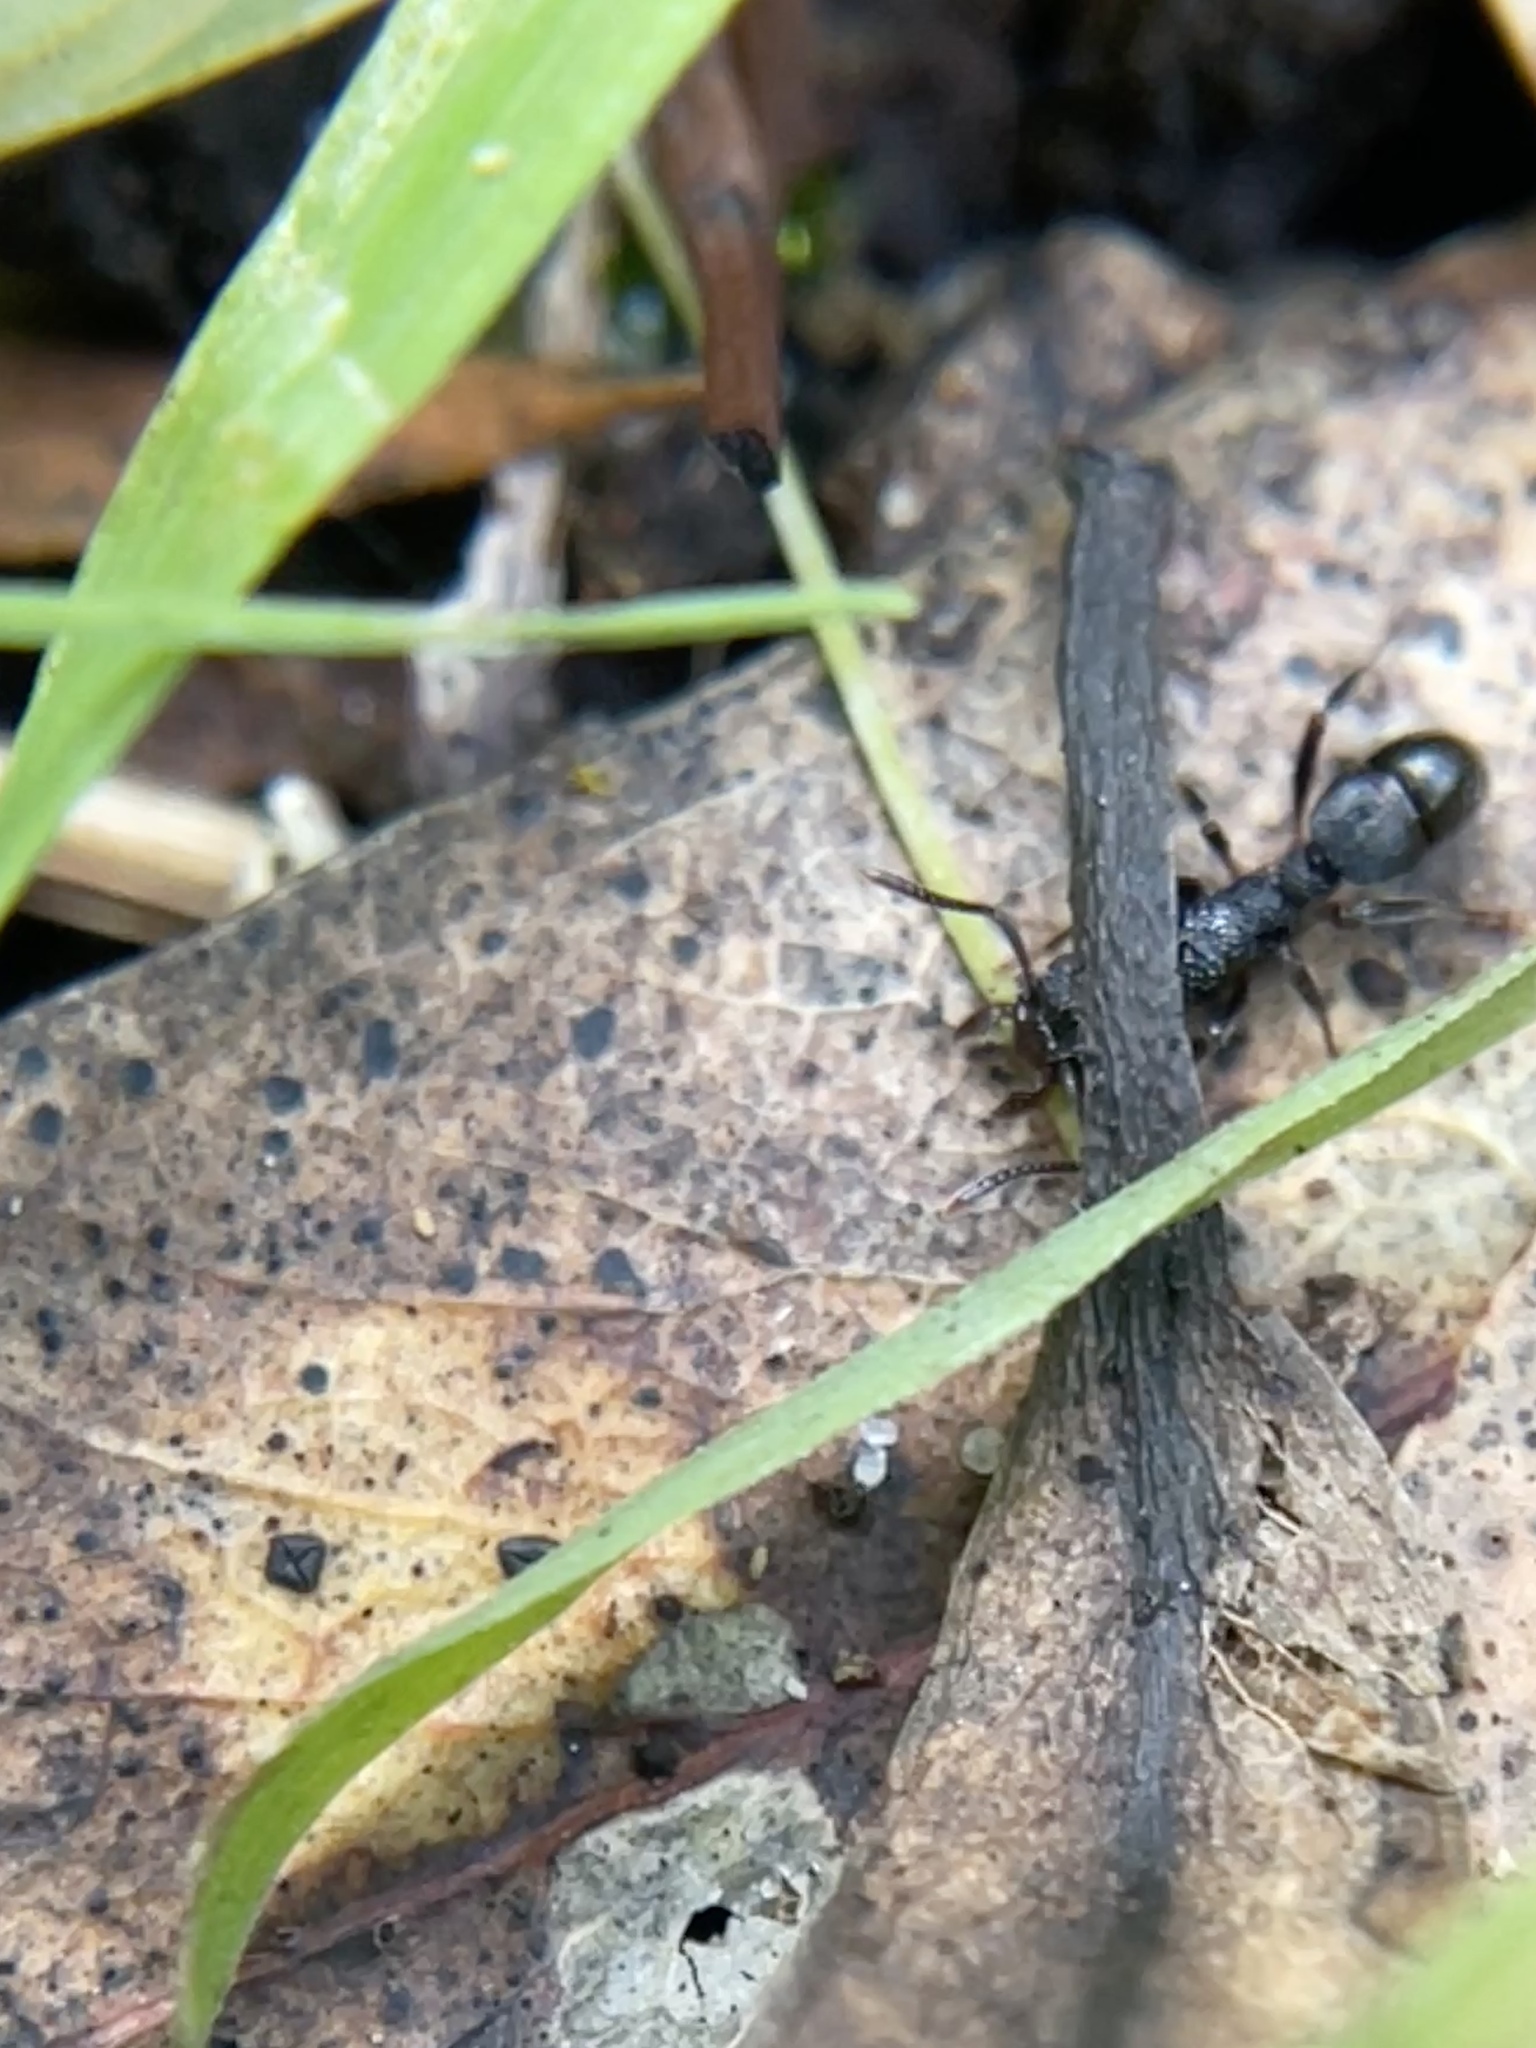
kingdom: Animalia
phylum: Arthropoda
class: Insecta
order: Hymenoptera
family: Formicidae
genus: Rhytidoponera
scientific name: Rhytidoponera victoriae
